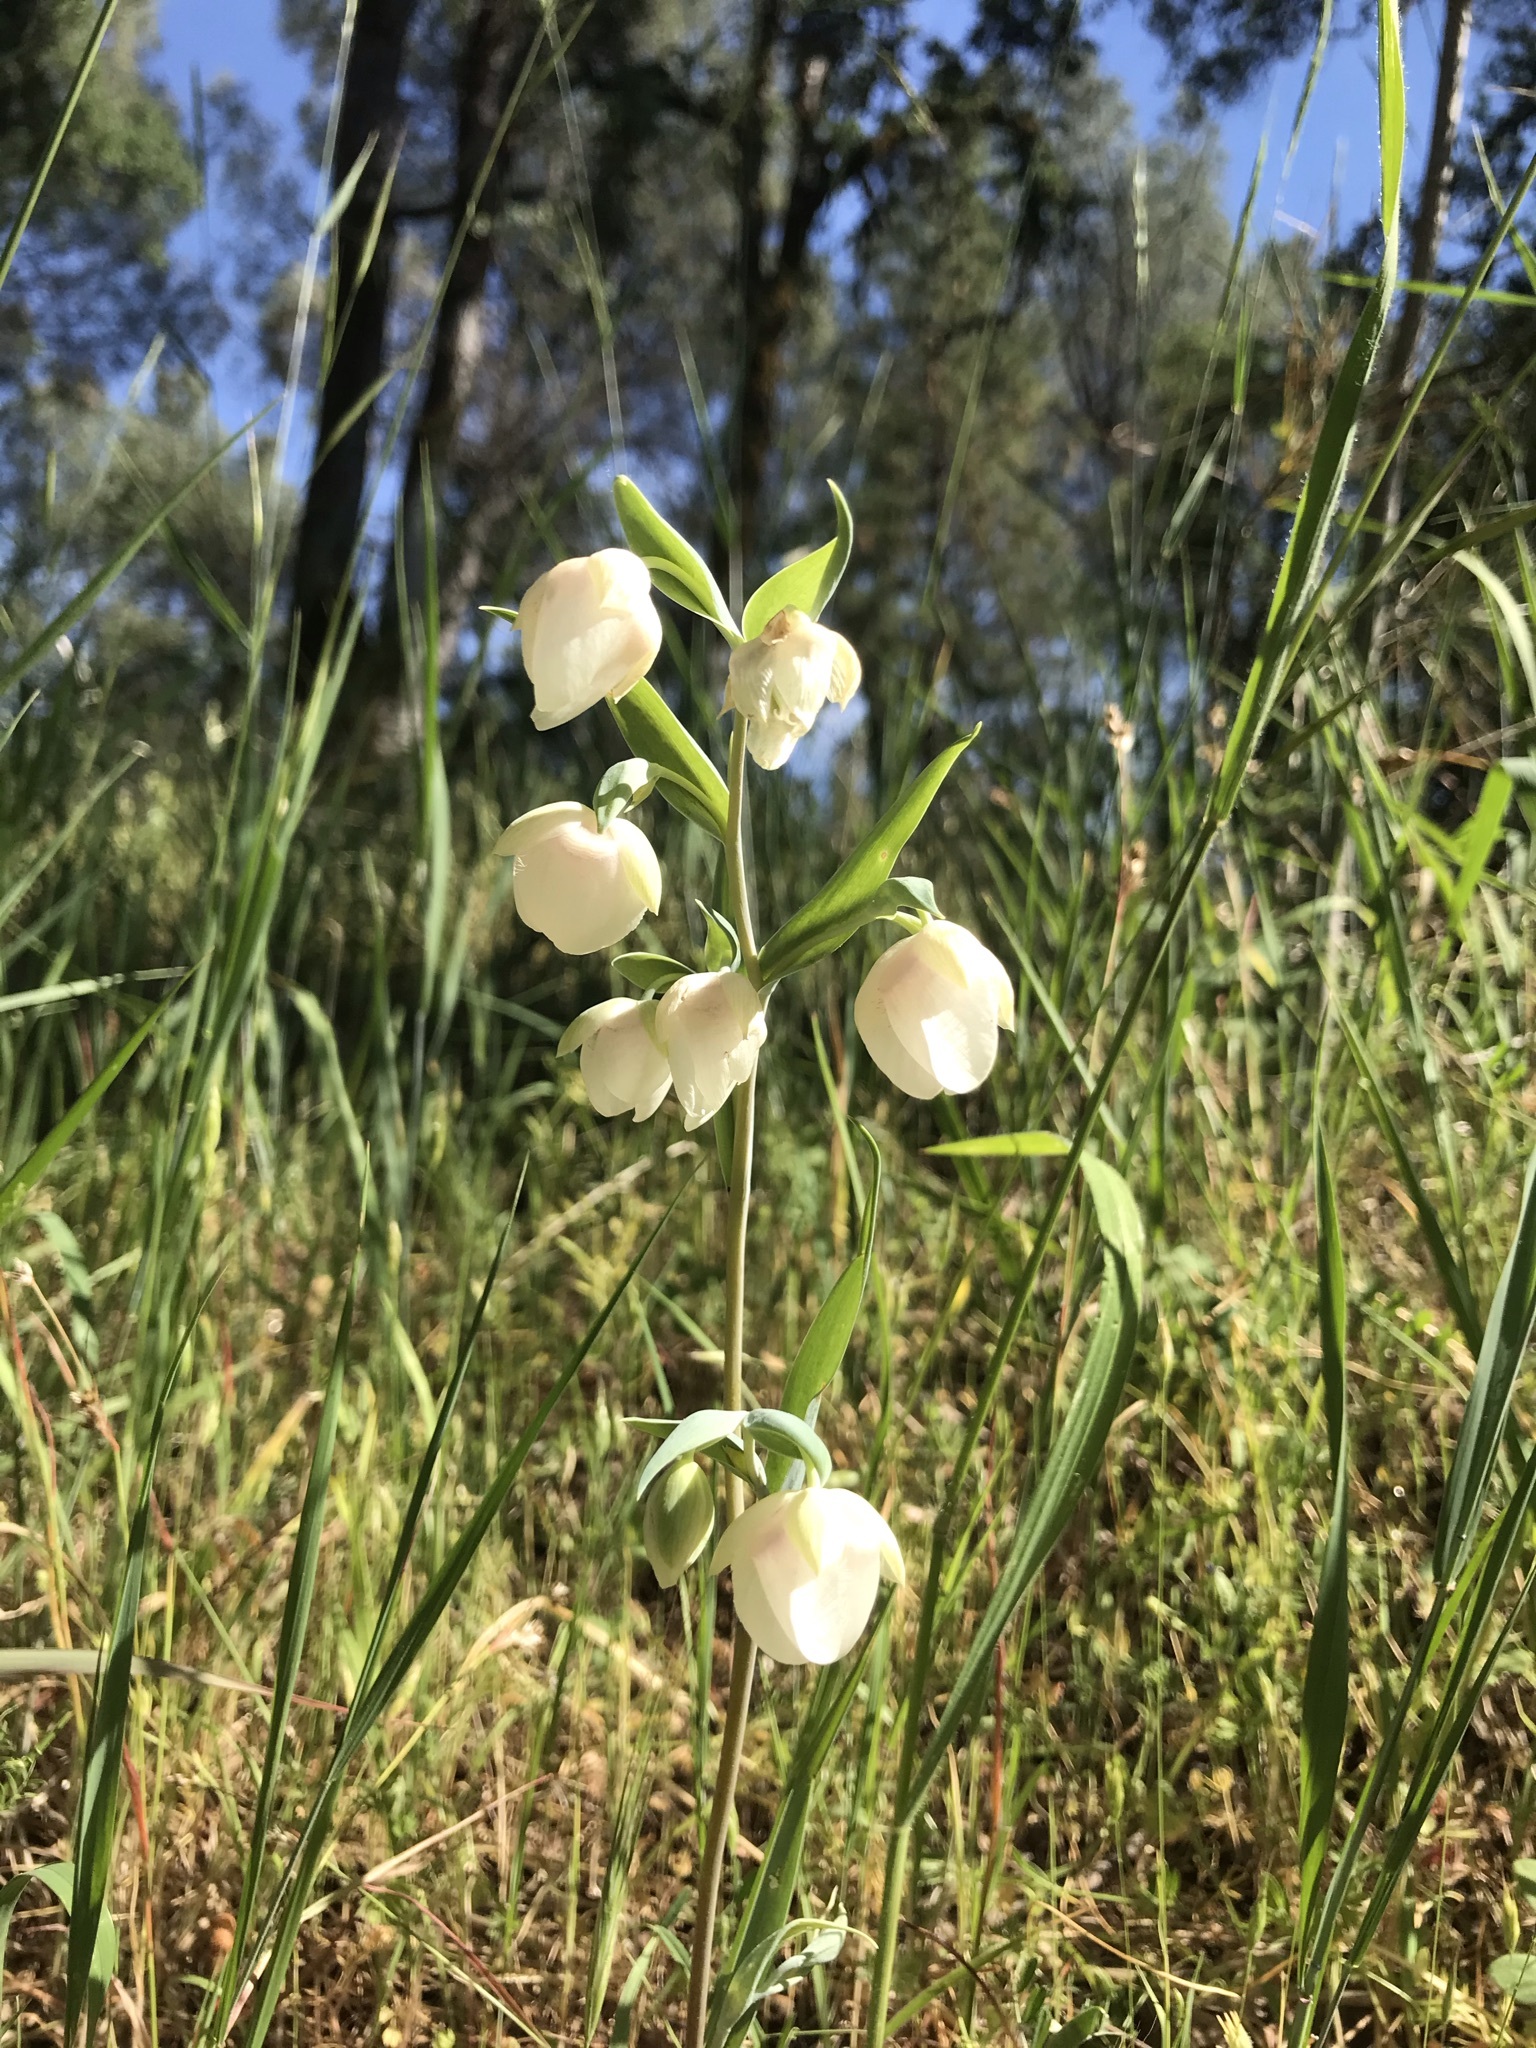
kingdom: Plantae
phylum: Tracheophyta
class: Liliopsida
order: Liliales
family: Liliaceae
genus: Calochortus
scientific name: Calochortus albus
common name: Fairy-lantern
